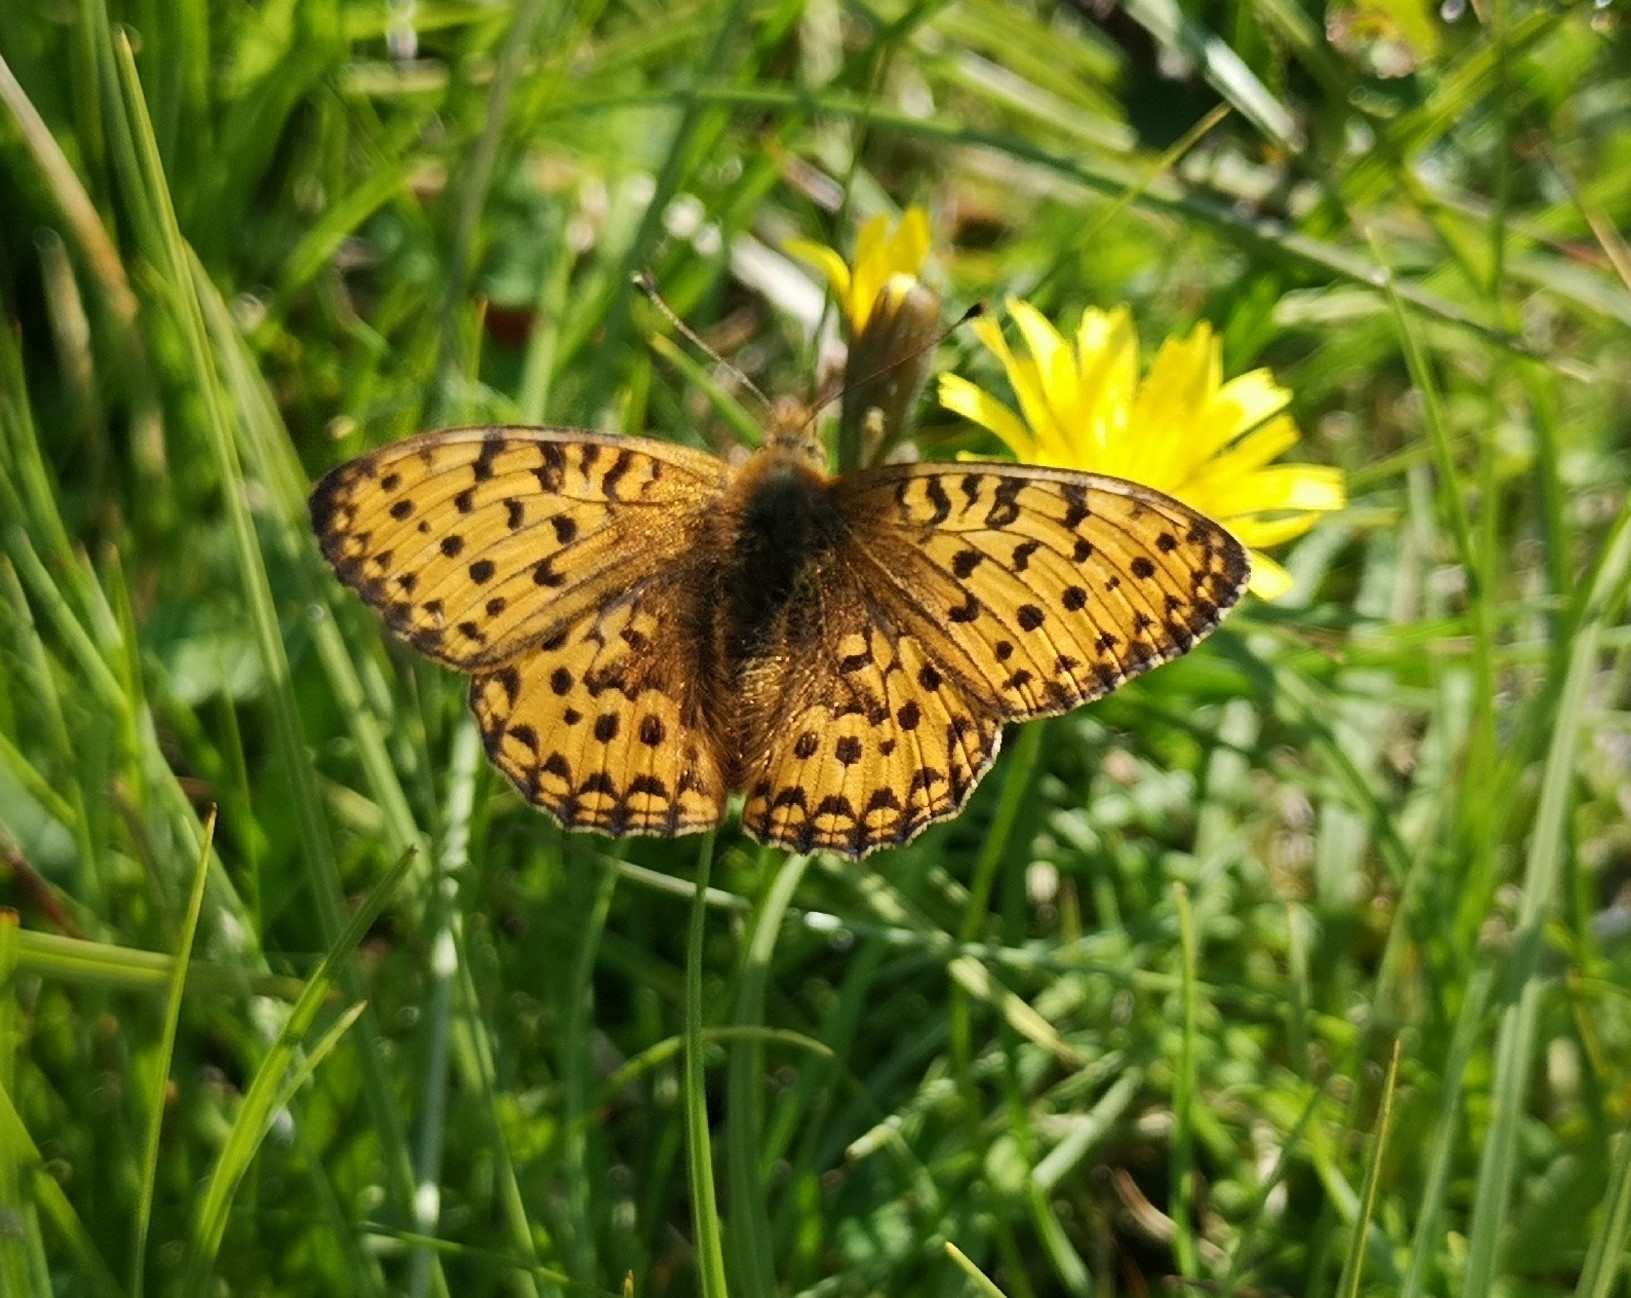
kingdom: Animalia
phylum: Arthropoda
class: Insecta
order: Lepidoptera
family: Nymphalidae
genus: Speyeria
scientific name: Speyeria aglaja
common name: Dark green fritillary
